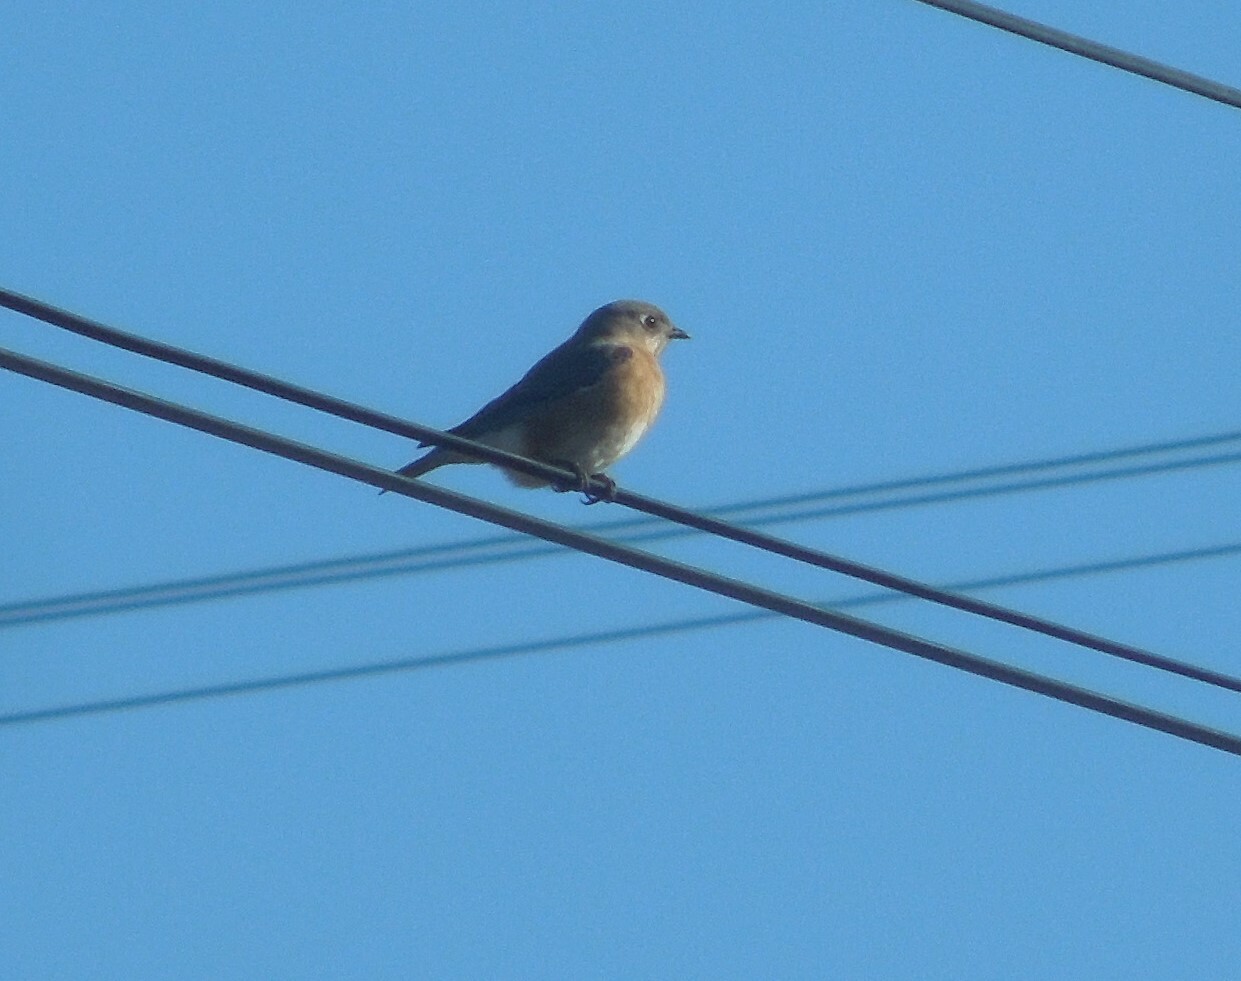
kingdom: Animalia
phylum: Chordata
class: Aves
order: Passeriformes
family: Turdidae
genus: Sialia
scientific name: Sialia sialis
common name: Eastern bluebird
